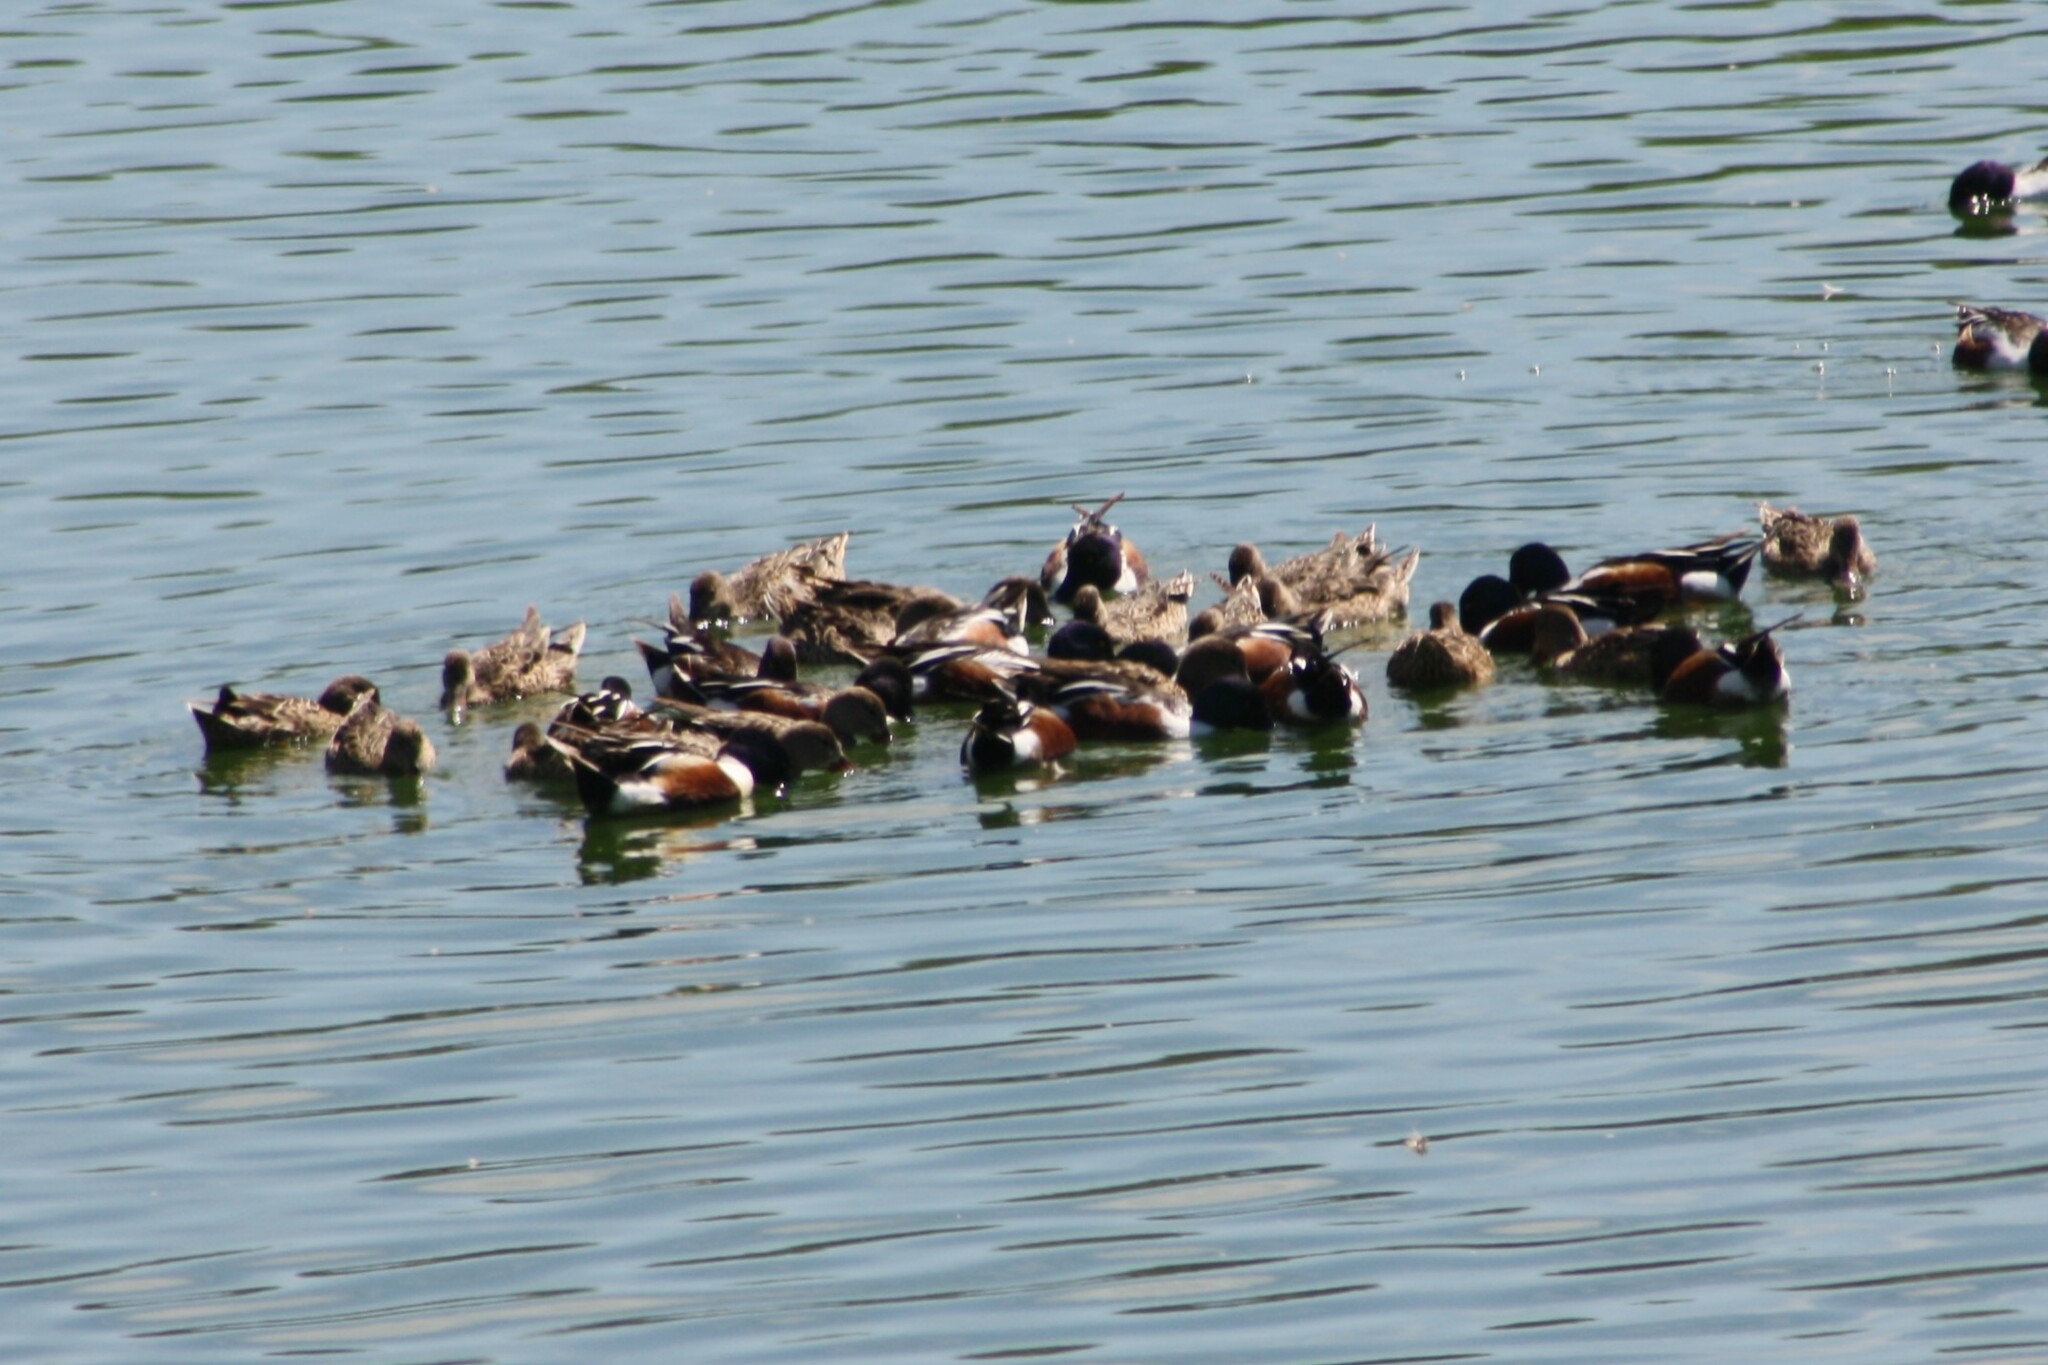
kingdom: Animalia
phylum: Chordata
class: Aves
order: Anseriformes
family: Anatidae
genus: Spatula
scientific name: Spatula clypeata
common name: Northern shoveler
